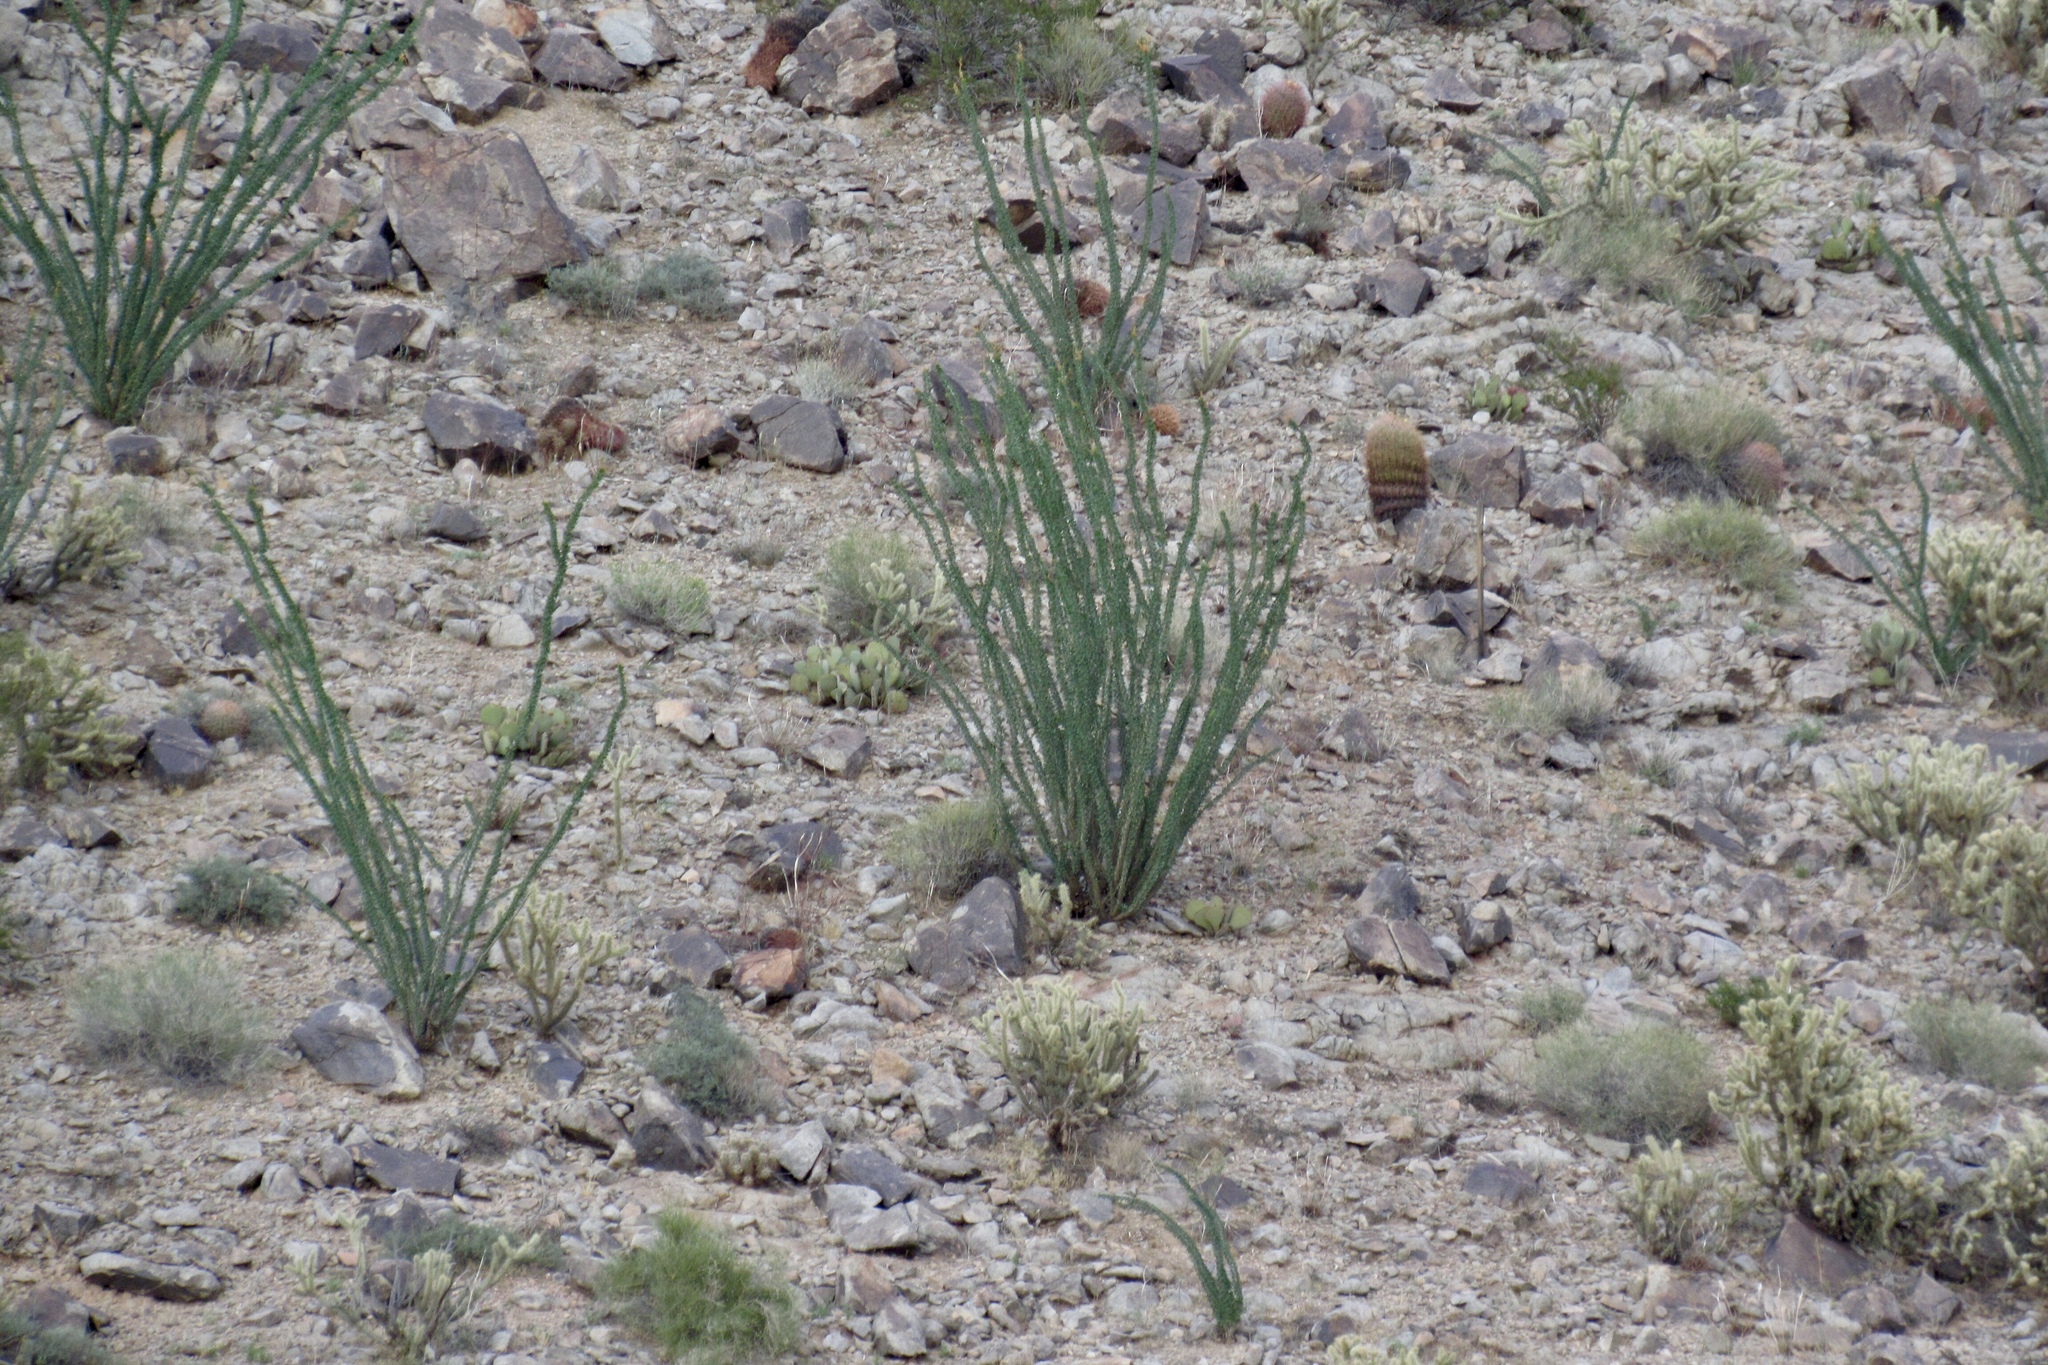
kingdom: Plantae
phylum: Tracheophyta
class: Magnoliopsida
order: Ericales
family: Fouquieriaceae
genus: Fouquieria
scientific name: Fouquieria splendens
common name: Vine-cactus
